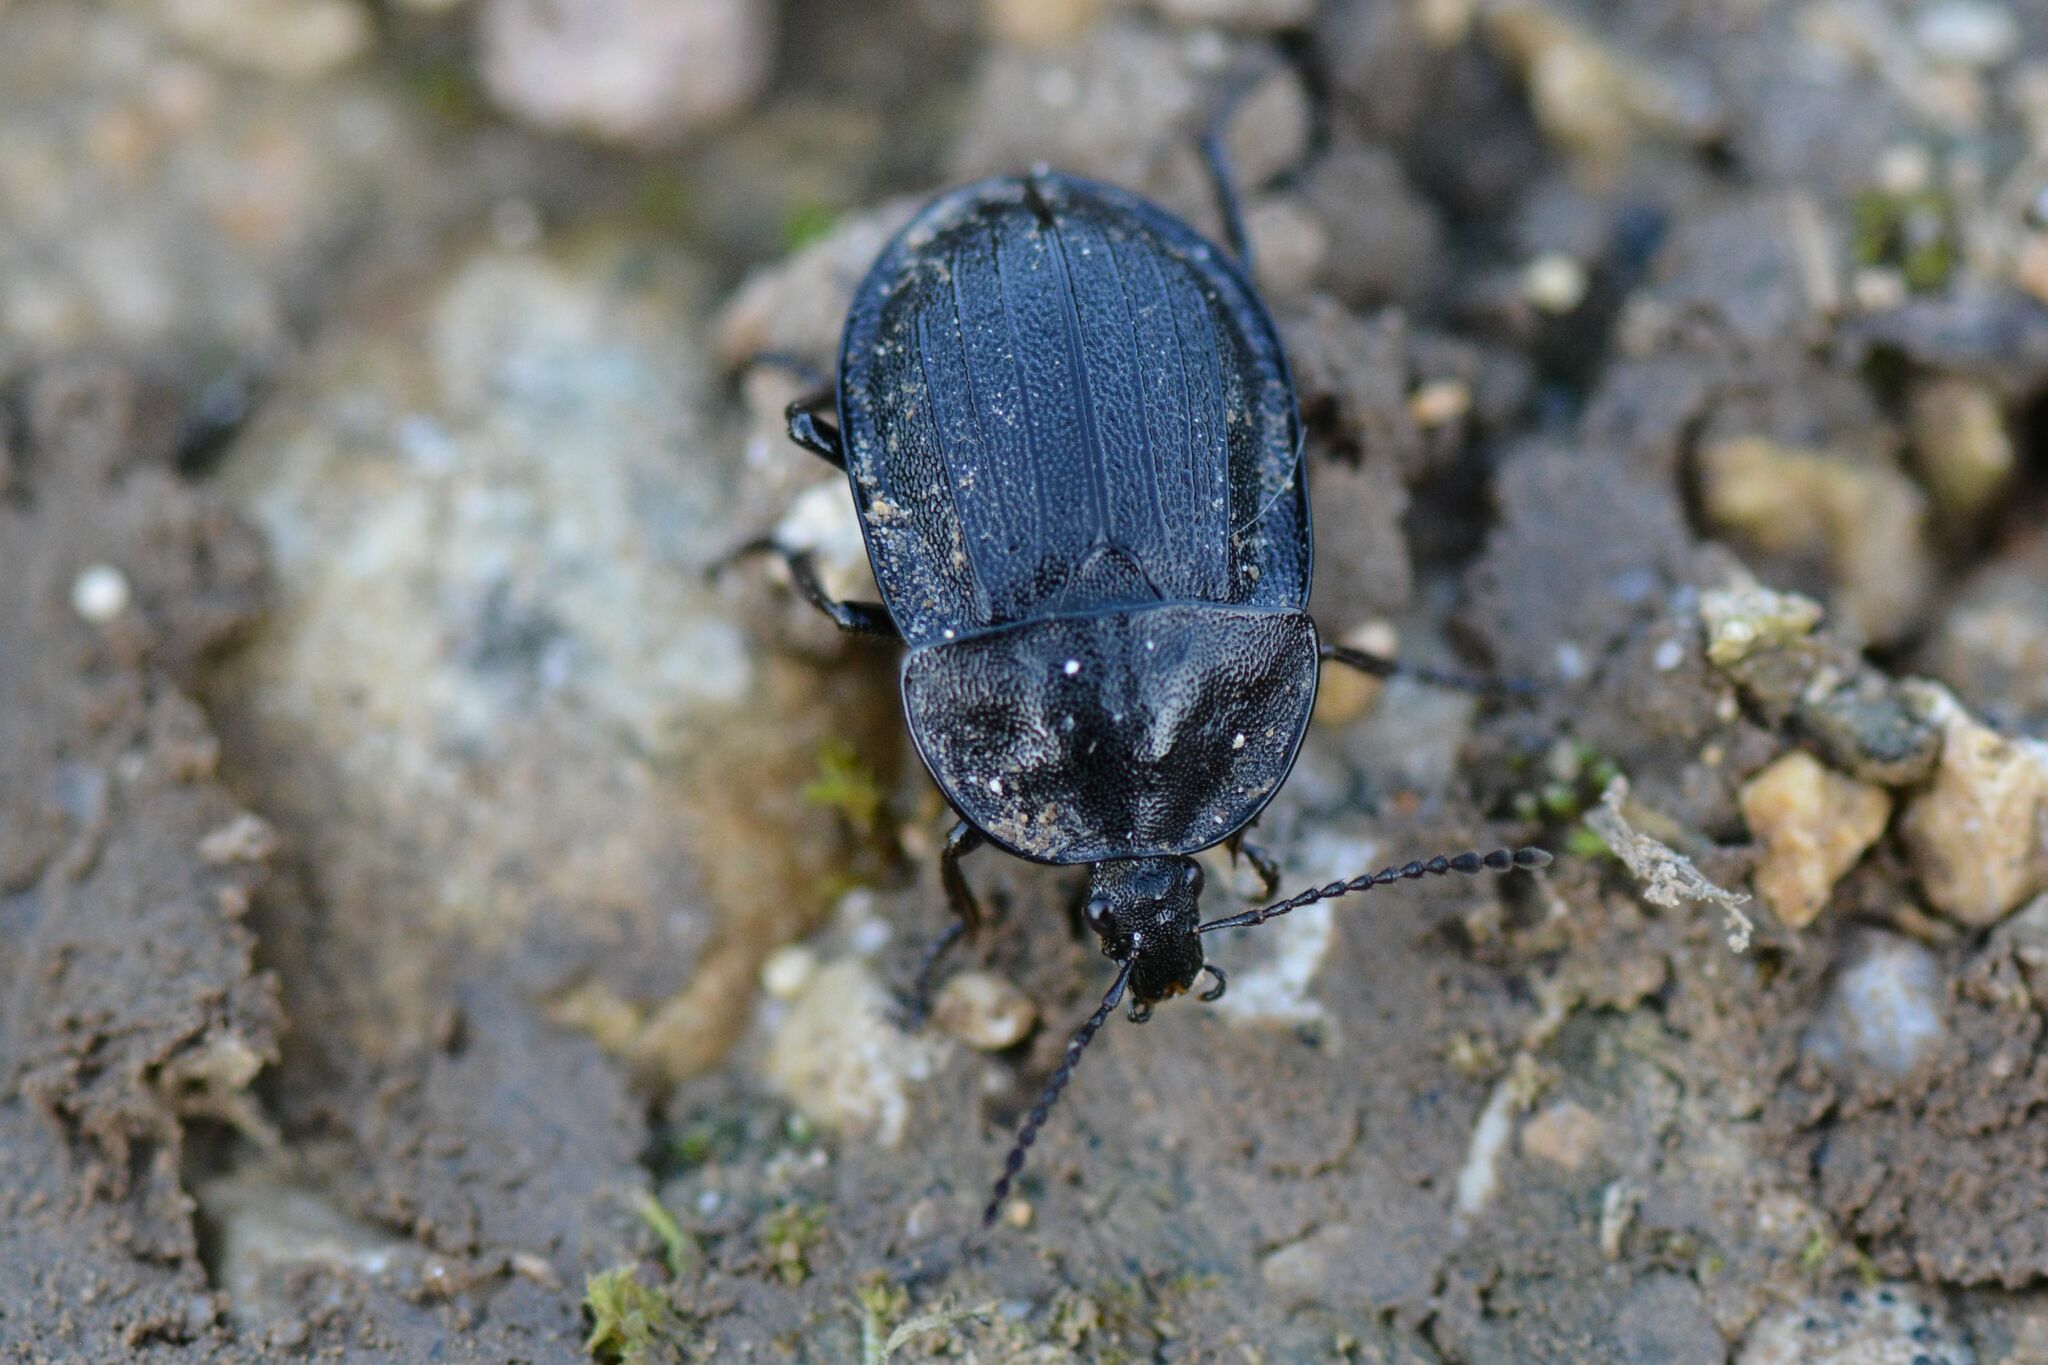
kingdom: Animalia
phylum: Arthropoda
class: Insecta
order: Coleoptera
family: Staphylinidae
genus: Silpha
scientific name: Silpha atrata
